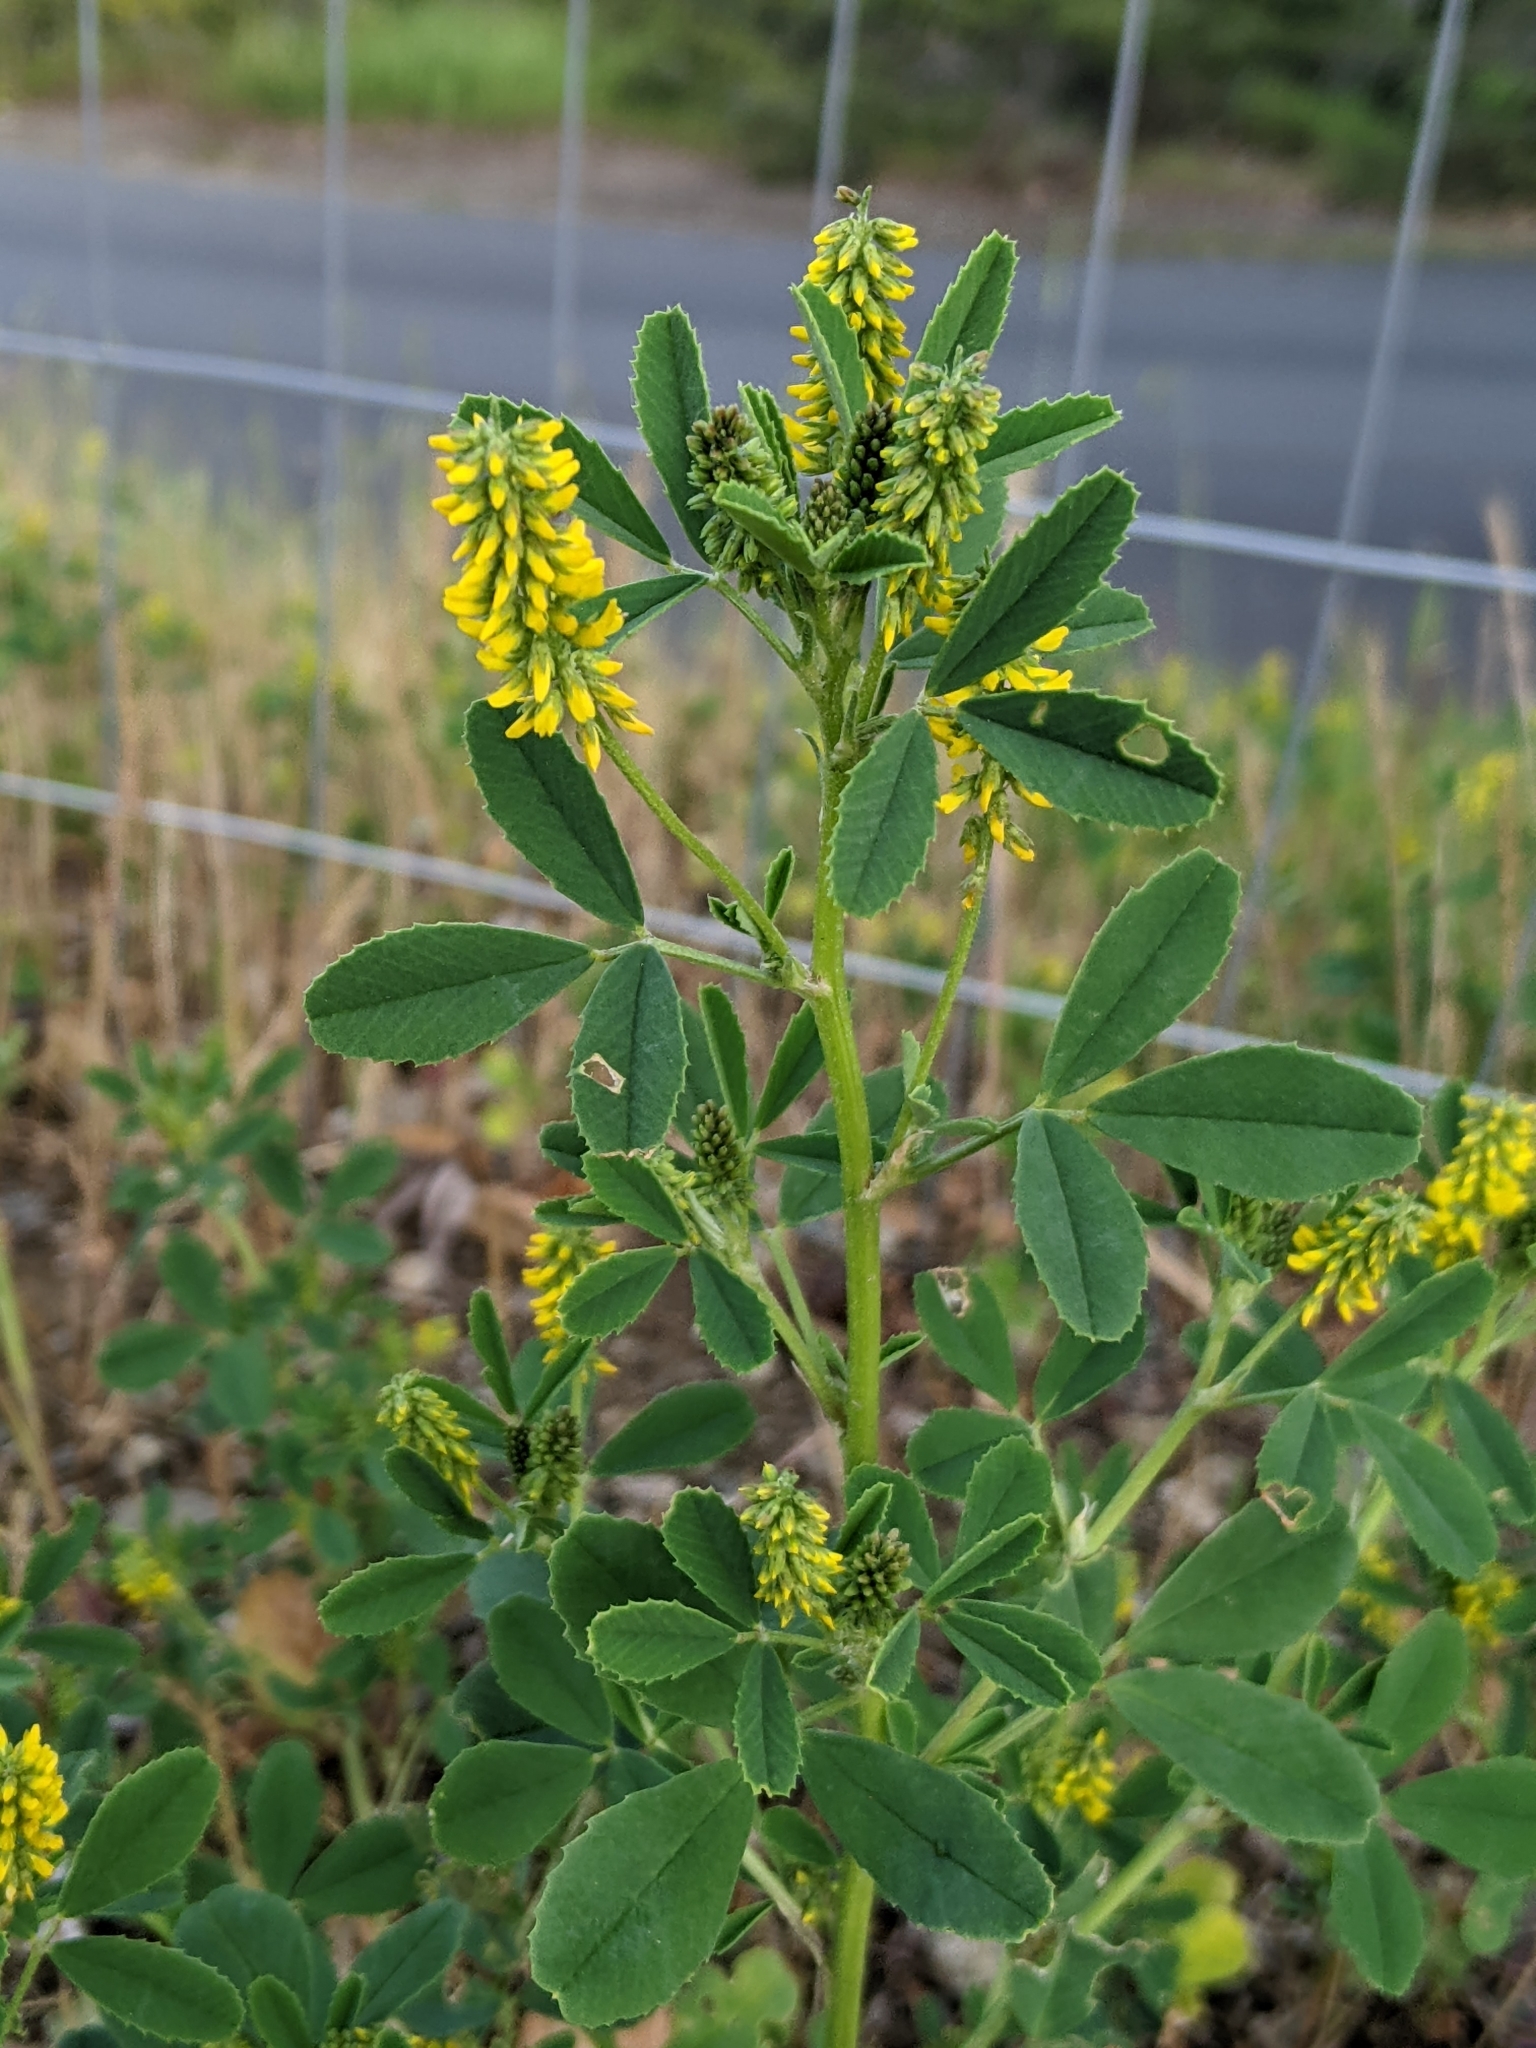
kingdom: Plantae
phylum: Tracheophyta
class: Magnoliopsida
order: Fabales
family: Fabaceae
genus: Melilotus
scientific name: Melilotus indicus
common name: Small melilot
